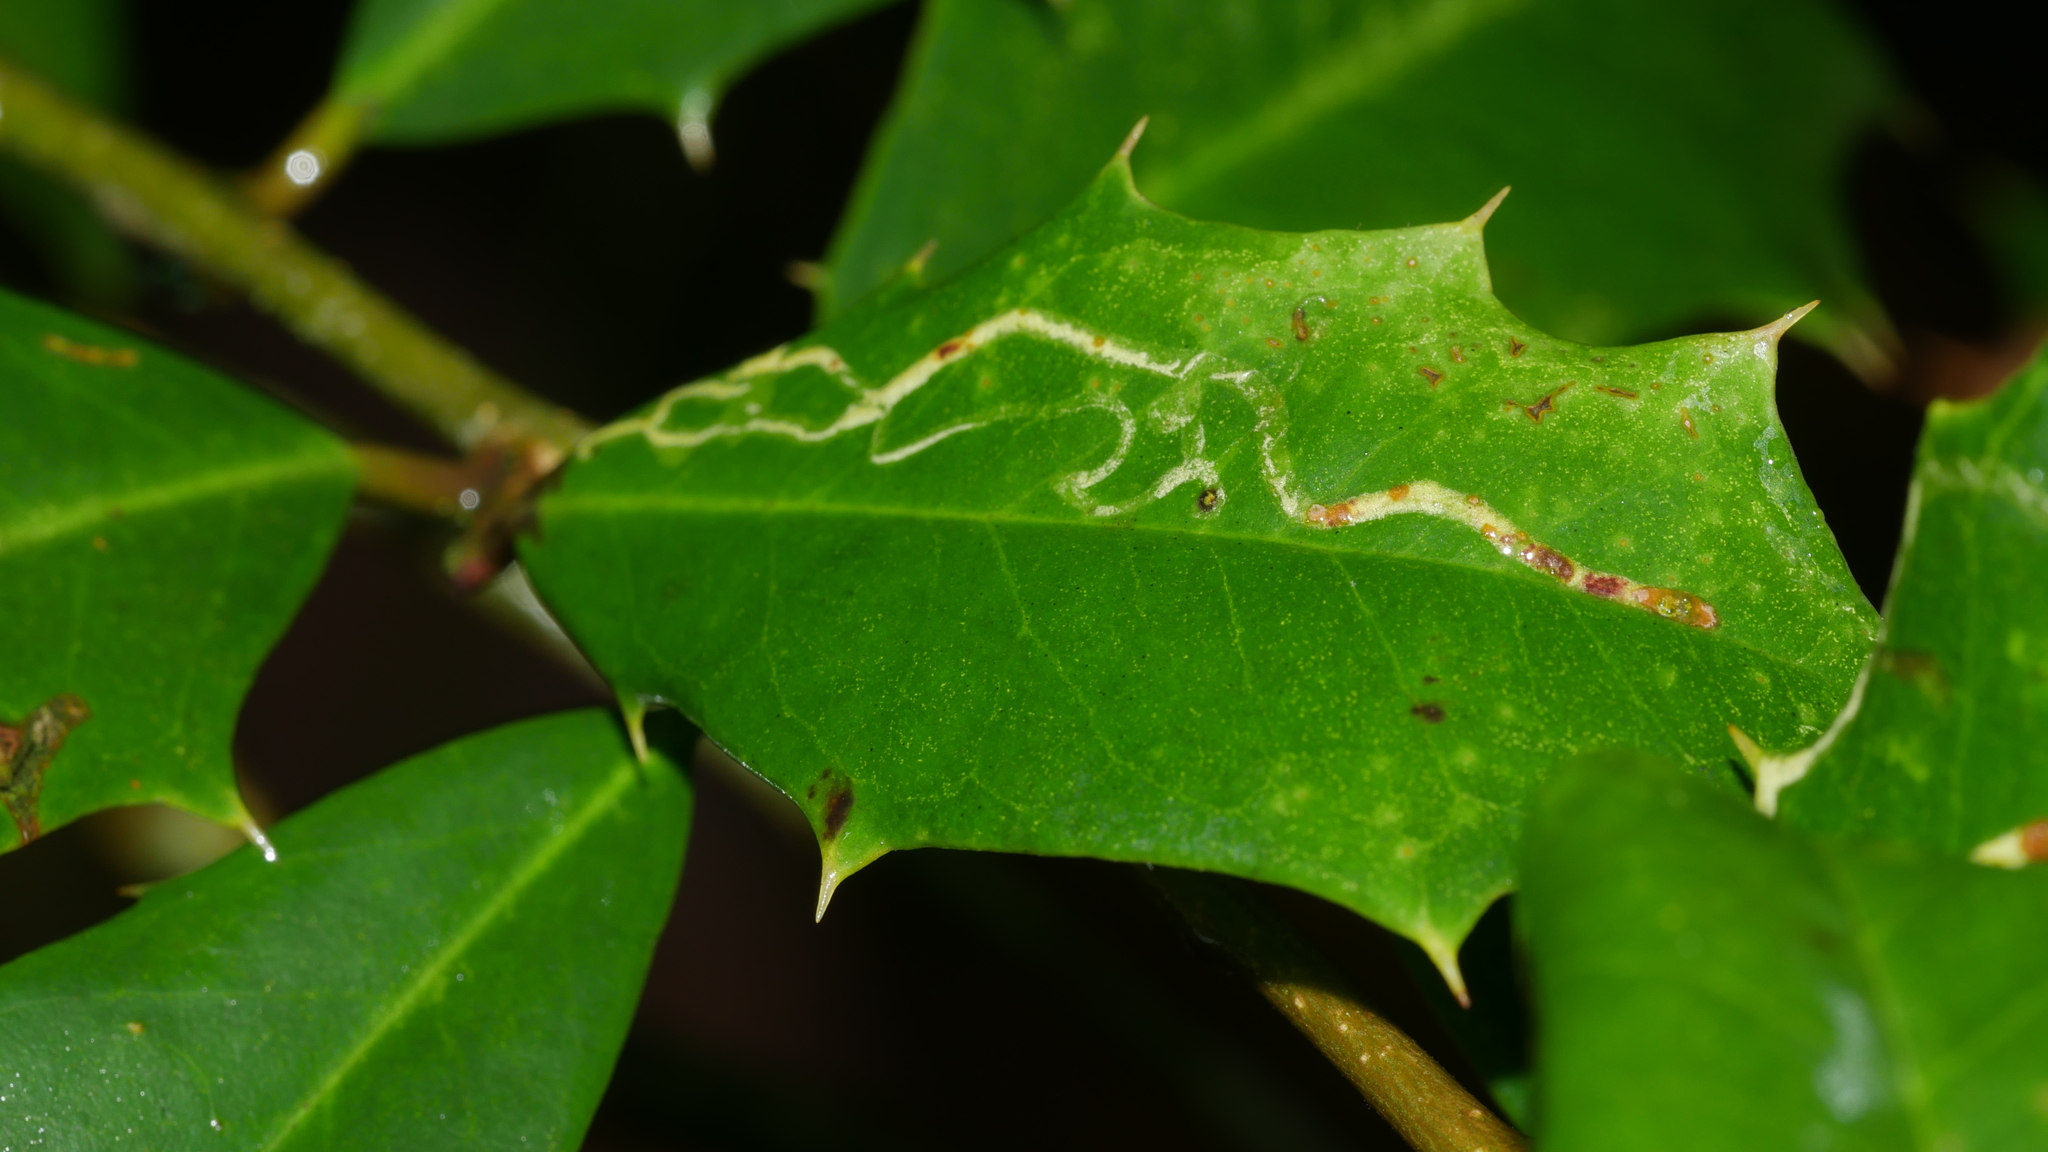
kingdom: Animalia
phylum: Arthropoda
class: Insecta
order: Diptera
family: Agromyzidae
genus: Phytomyza
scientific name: Phytomyza opacae
